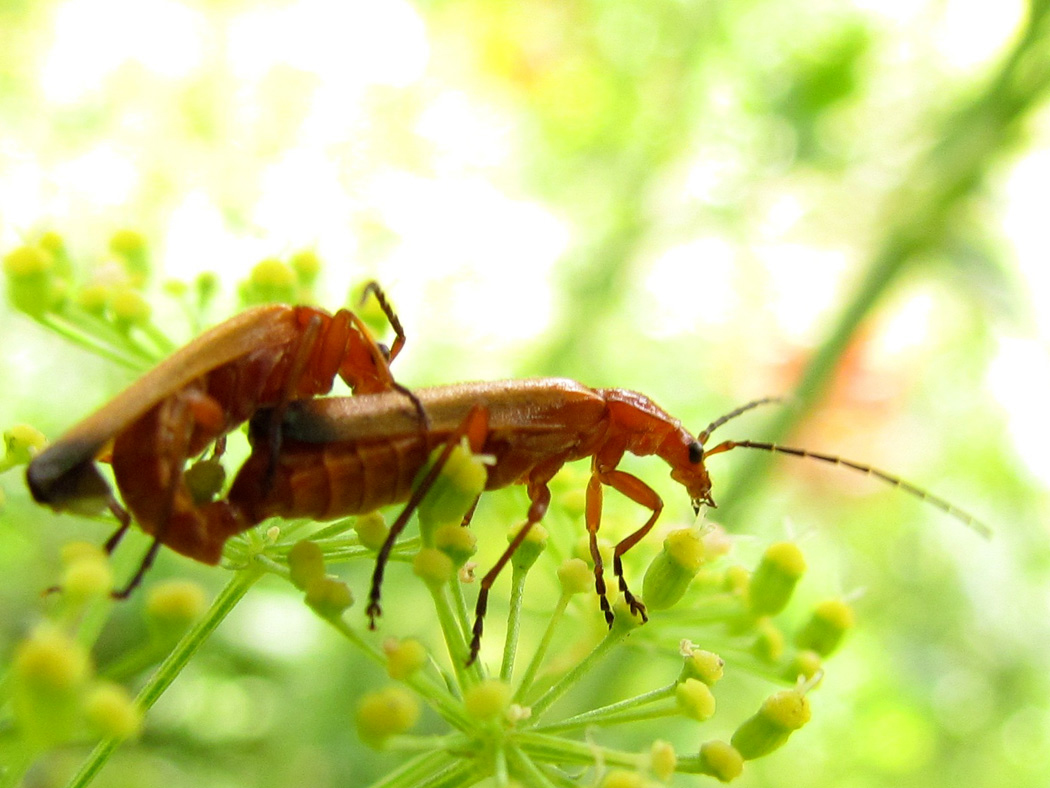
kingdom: Animalia
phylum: Arthropoda
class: Insecta
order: Coleoptera
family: Cantharidae
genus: Rhagonycha
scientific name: Rhagonycha fulva
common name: Common red soldier beetle
